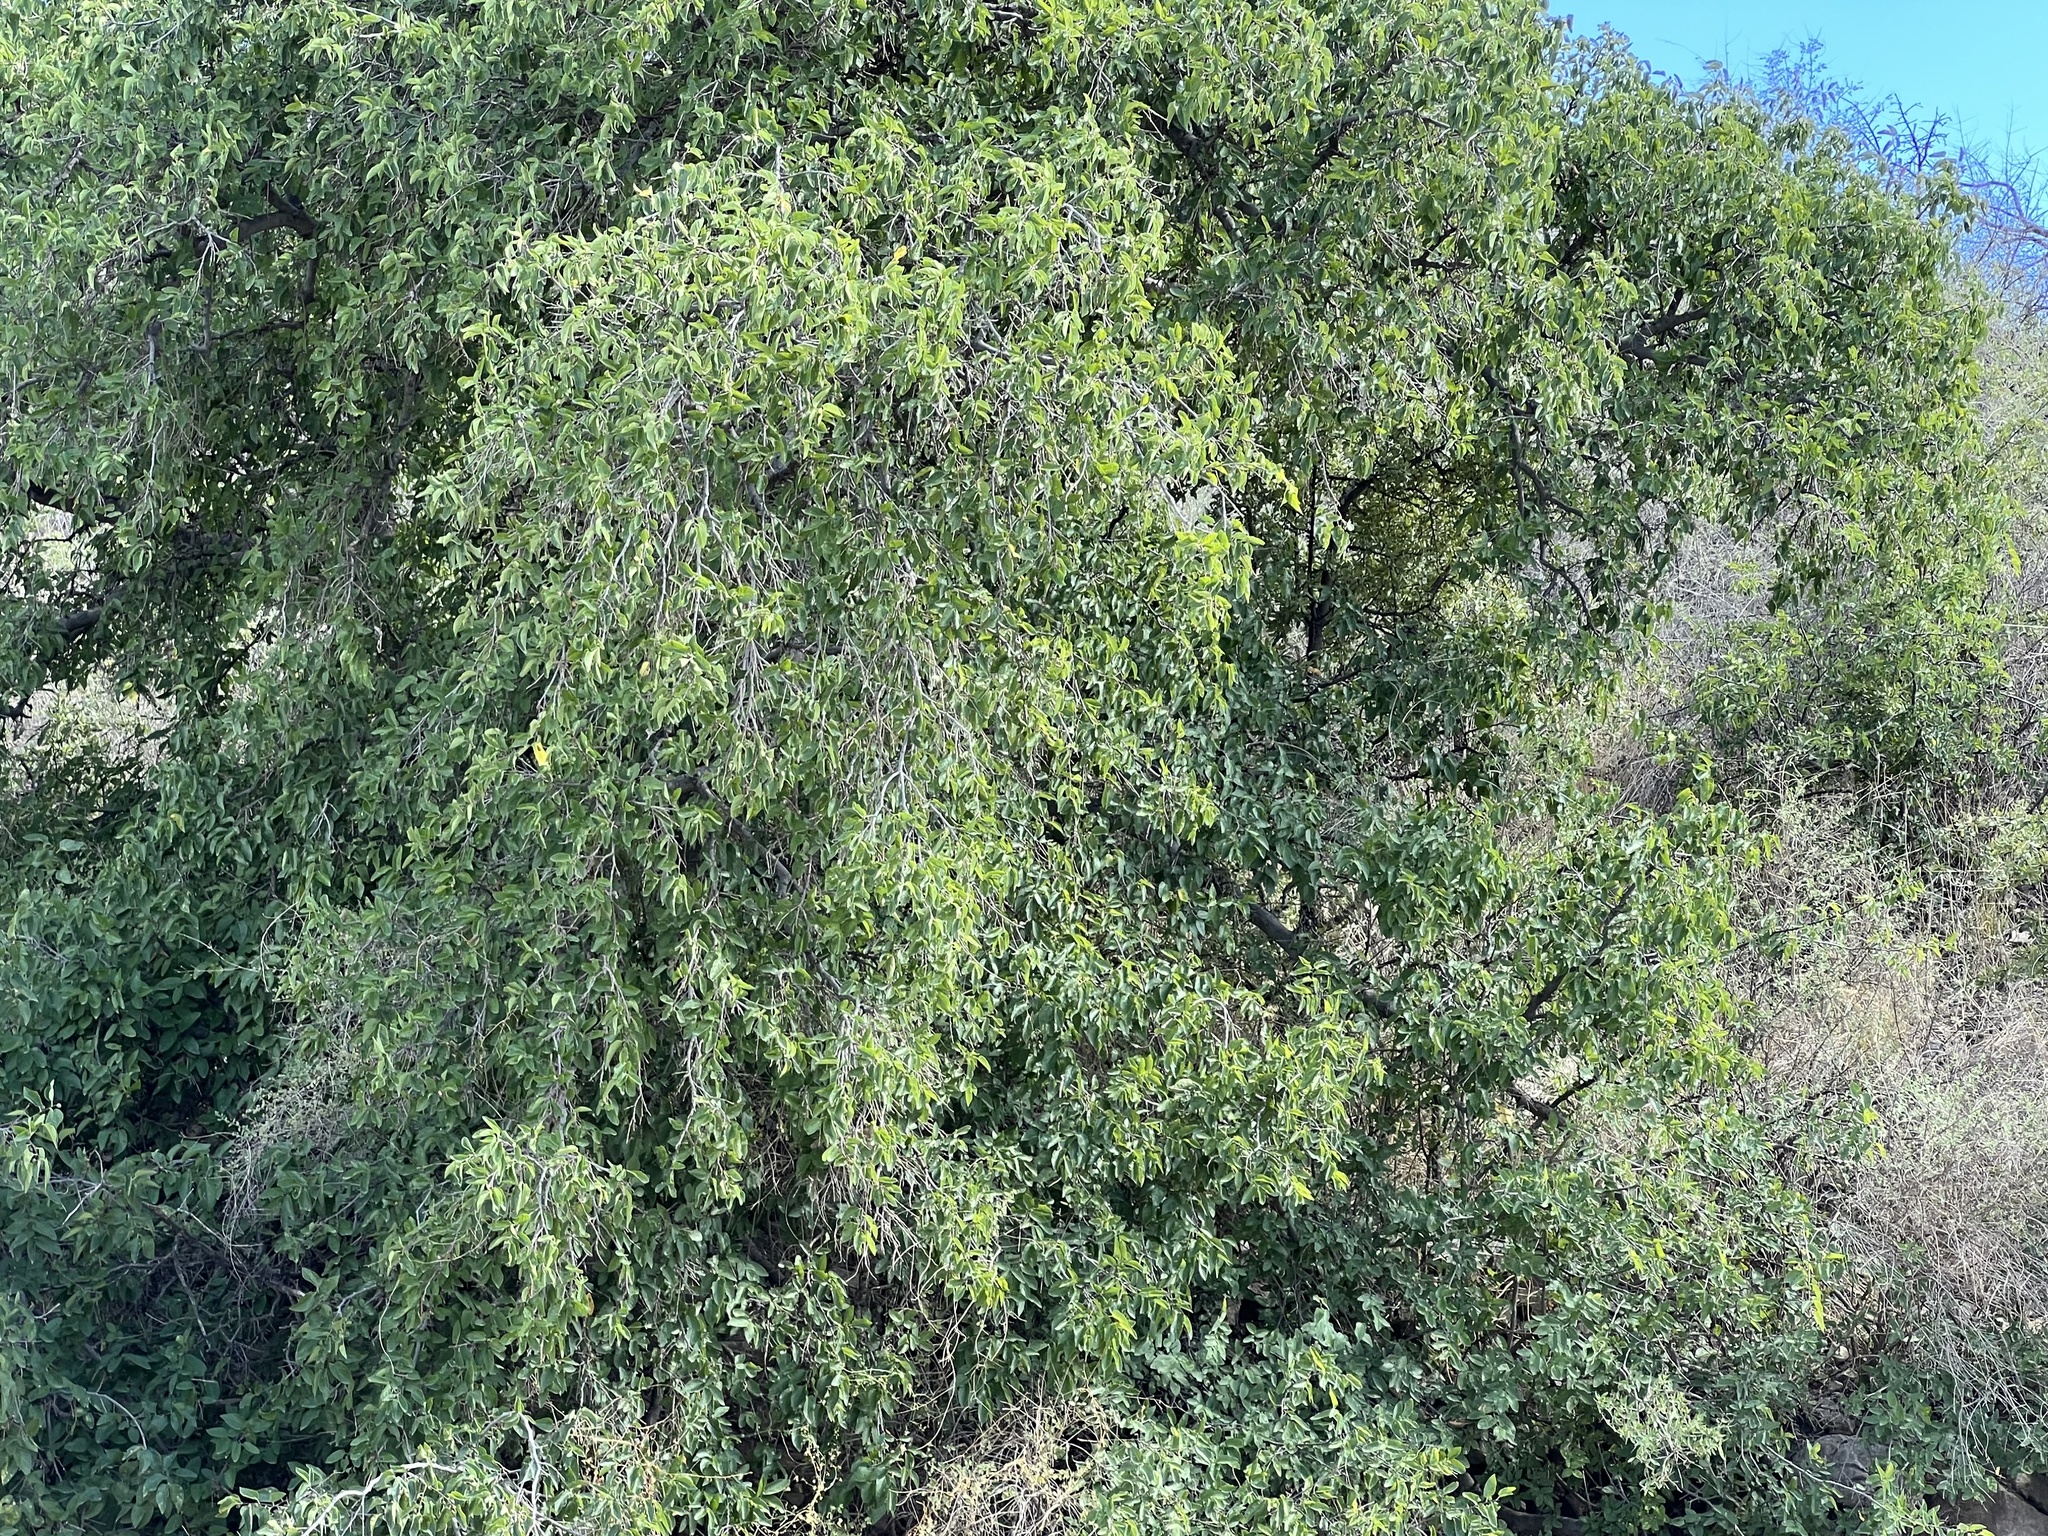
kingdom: Plantae
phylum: Tracheophyta
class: Magnoliopsida
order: Rosales
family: Cannabaceae
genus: Celtis
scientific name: Celtis reticulata
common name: Netleaf hackberry
